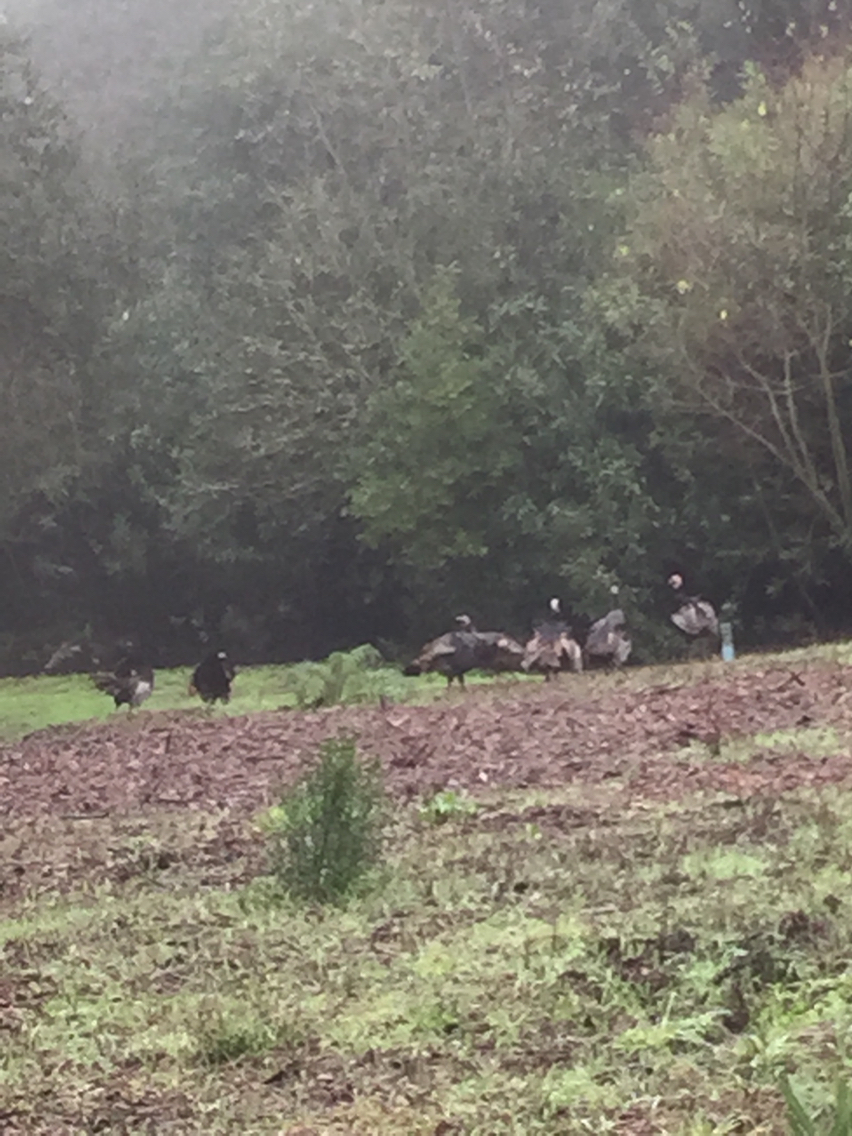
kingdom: Animalia
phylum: Chordata
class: Aves
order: Galliformes
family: Phasianidae
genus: Meleagris
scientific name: Meleagris gallopavo
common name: Wild turkey
